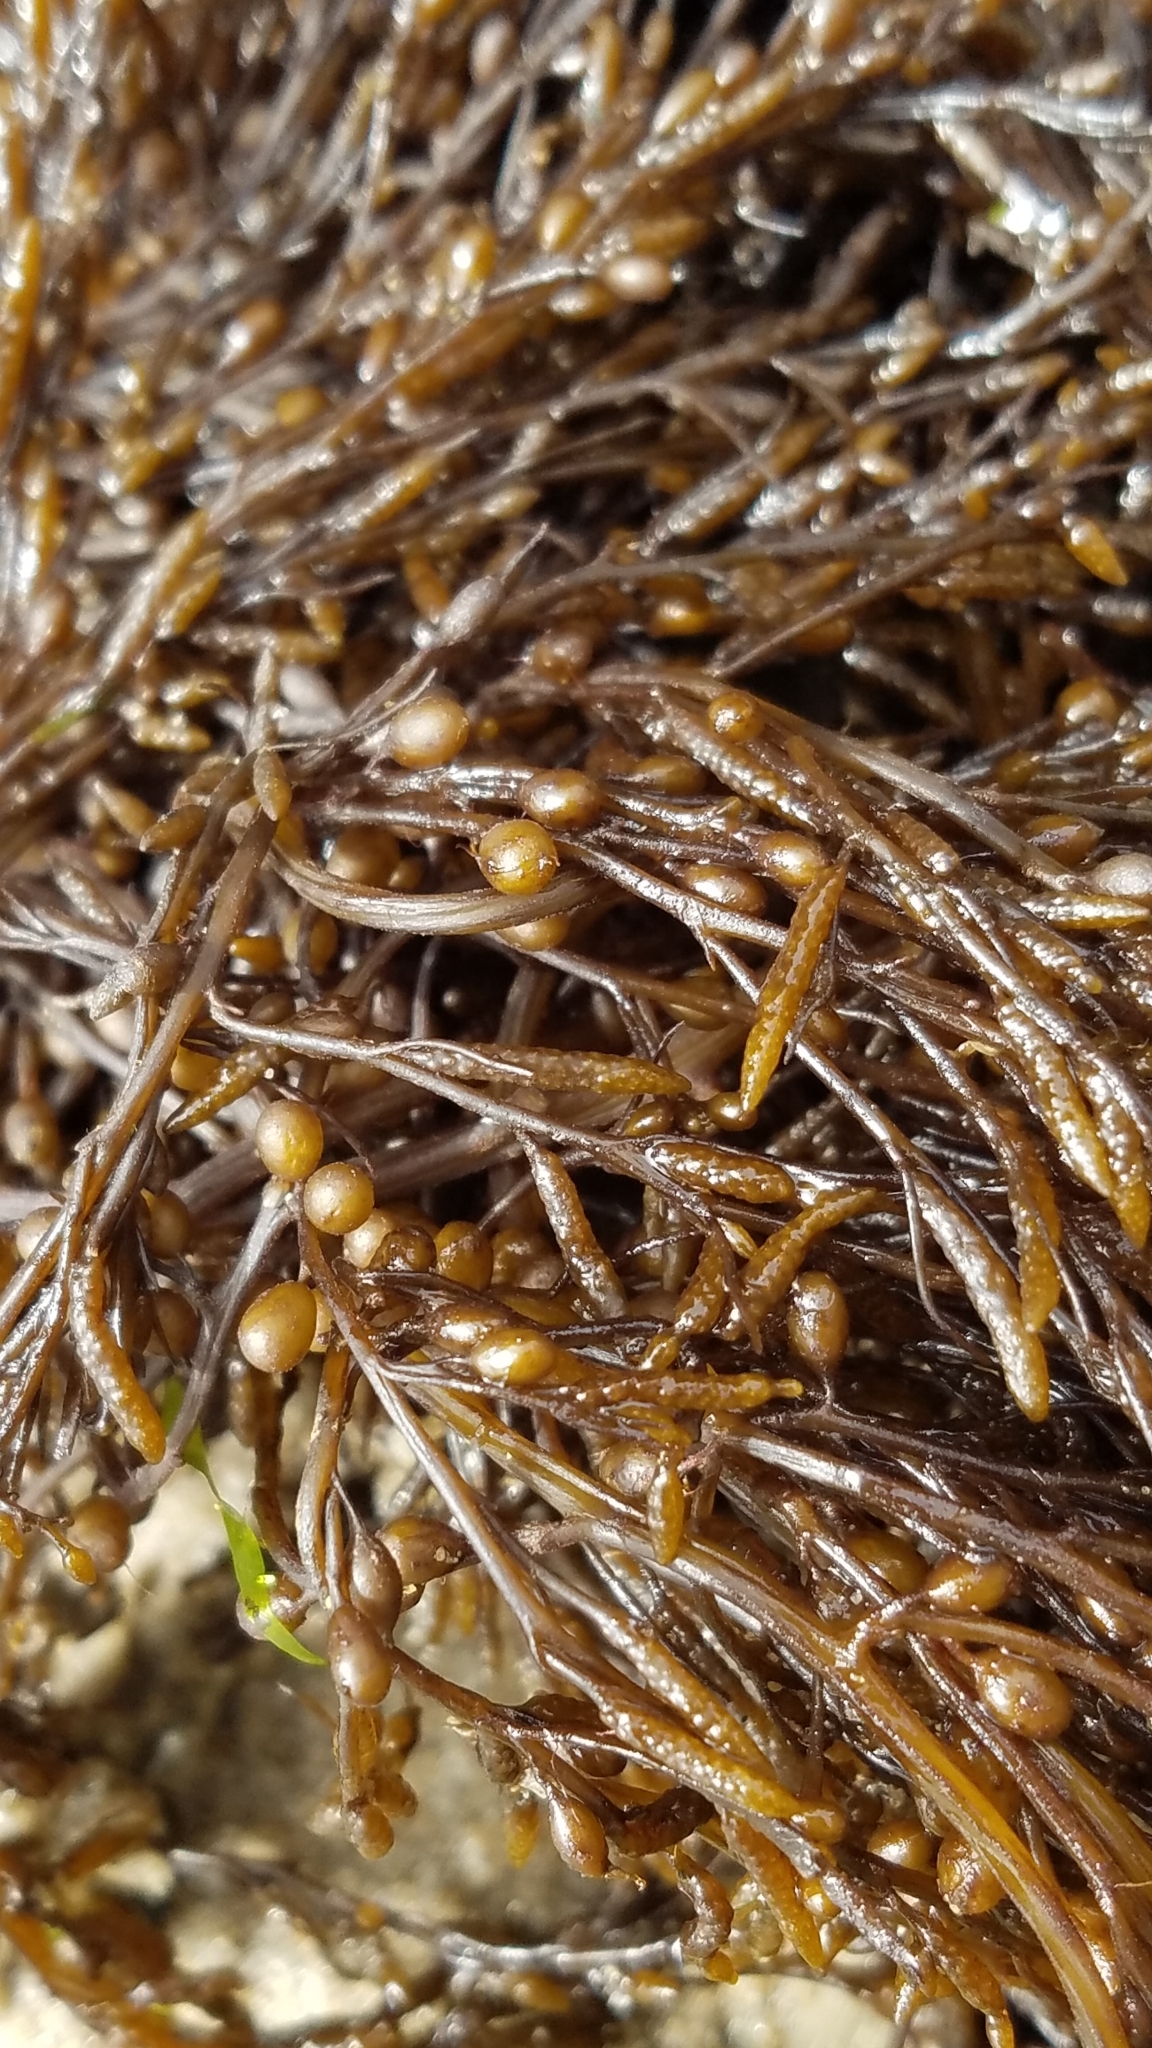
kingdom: Chromista
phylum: Ochrophyta
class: Phaeophyceae
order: Fucales
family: Sargassaceae
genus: Sargassum
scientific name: Sargassum muticum
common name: Japweed
